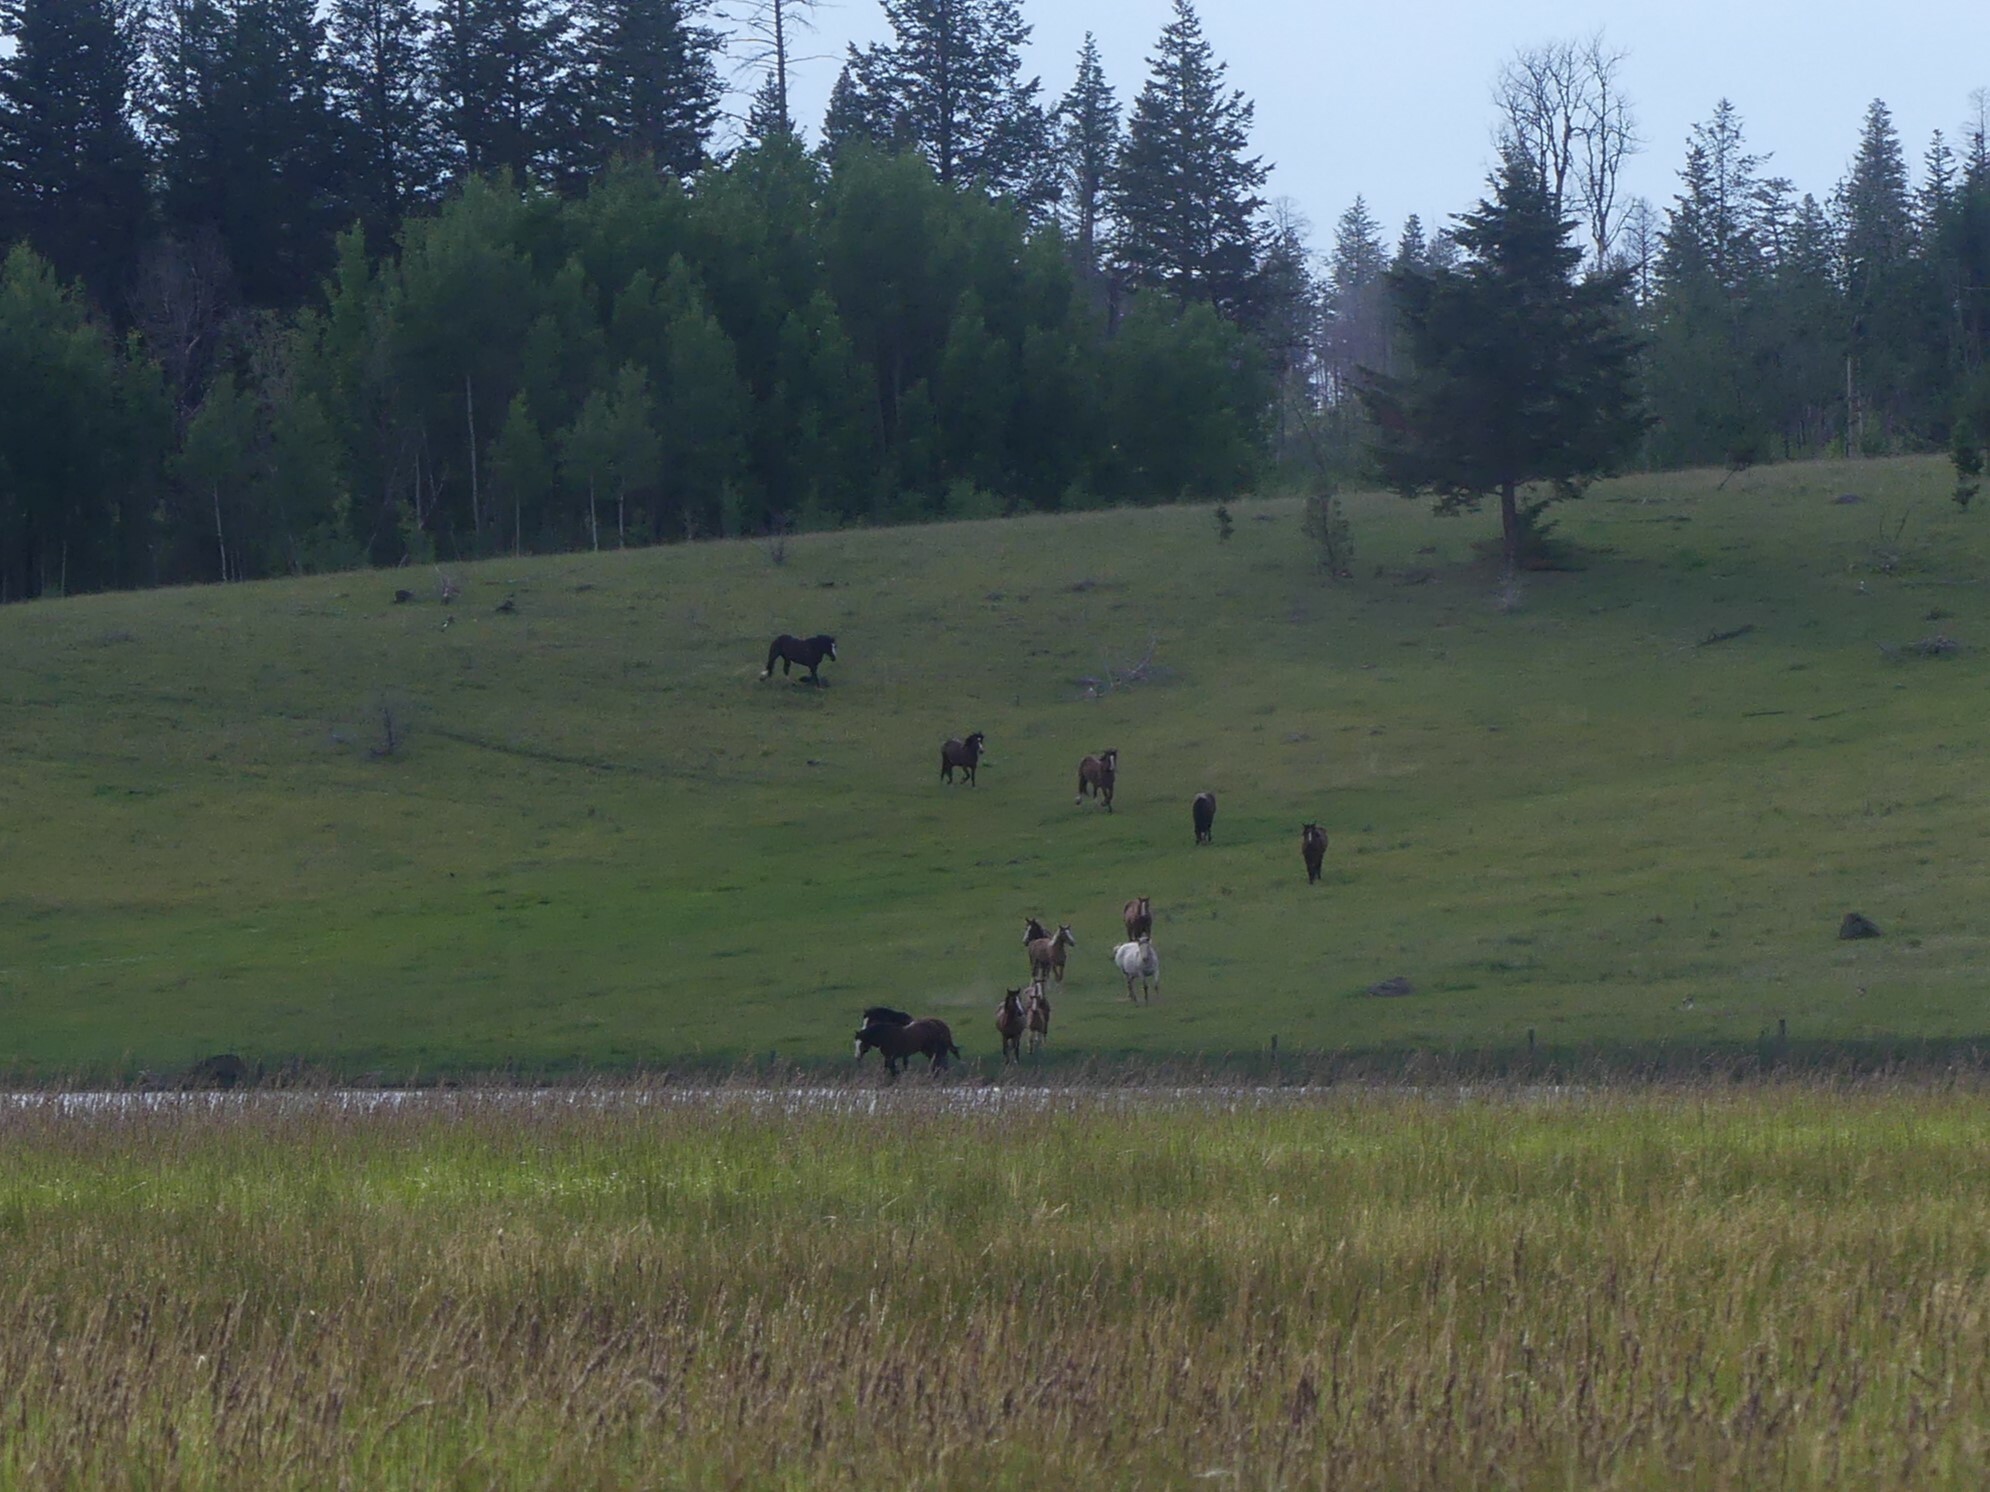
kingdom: Animalia
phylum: Chordata
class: Mammalia
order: Perissodactyla
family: Equidae
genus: Equus
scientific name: Equus caballus
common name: Horse
